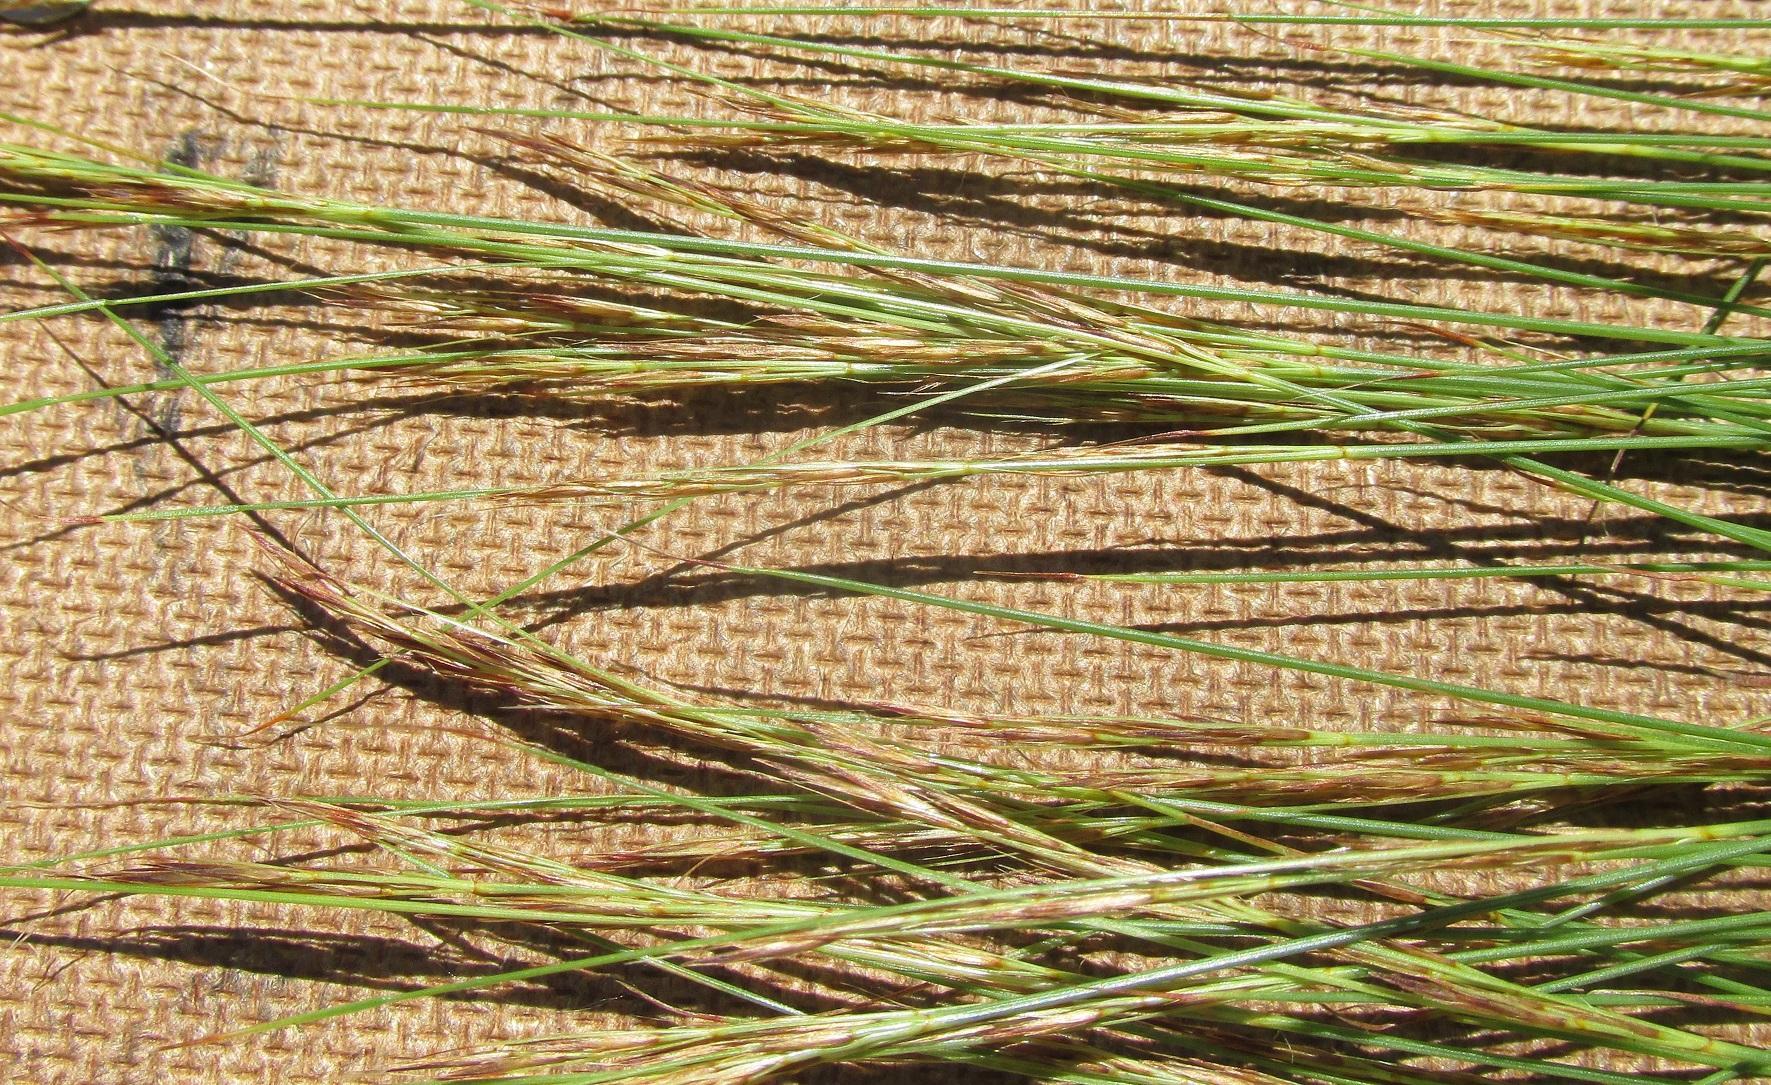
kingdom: Plantae
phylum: Tracheophyta
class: Liliopsida
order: Poales
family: Cyperaceae
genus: Schoenus
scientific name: Schoenus ligulatus
